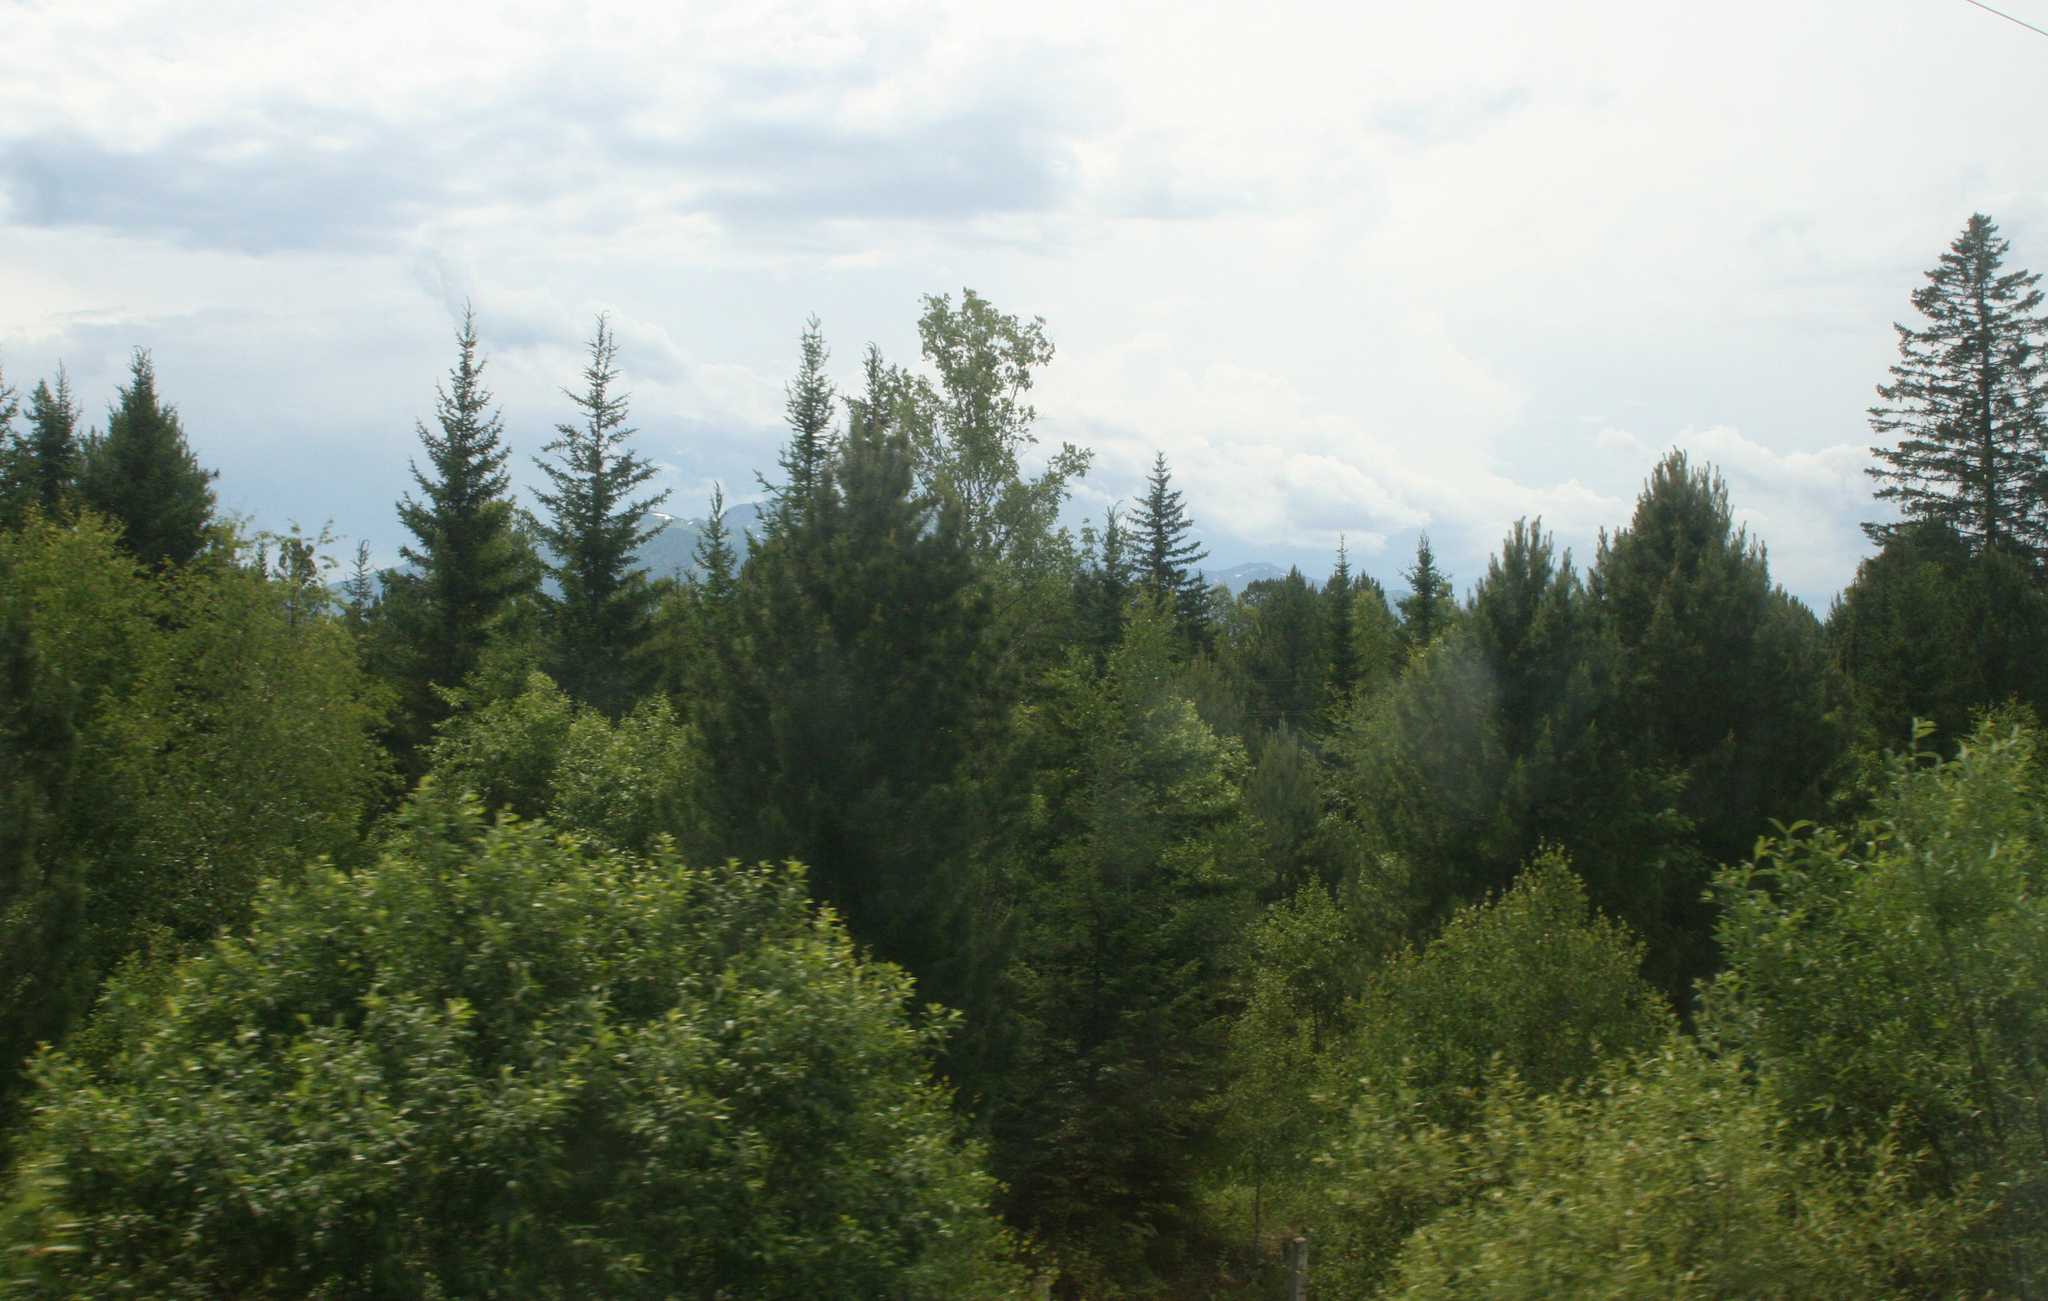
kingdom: Plantae
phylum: Tracheophyta
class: Pinopsida
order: Pinales
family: Pinaceae
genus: Pinus
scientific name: Pinus sibirica
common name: Siberian pine
